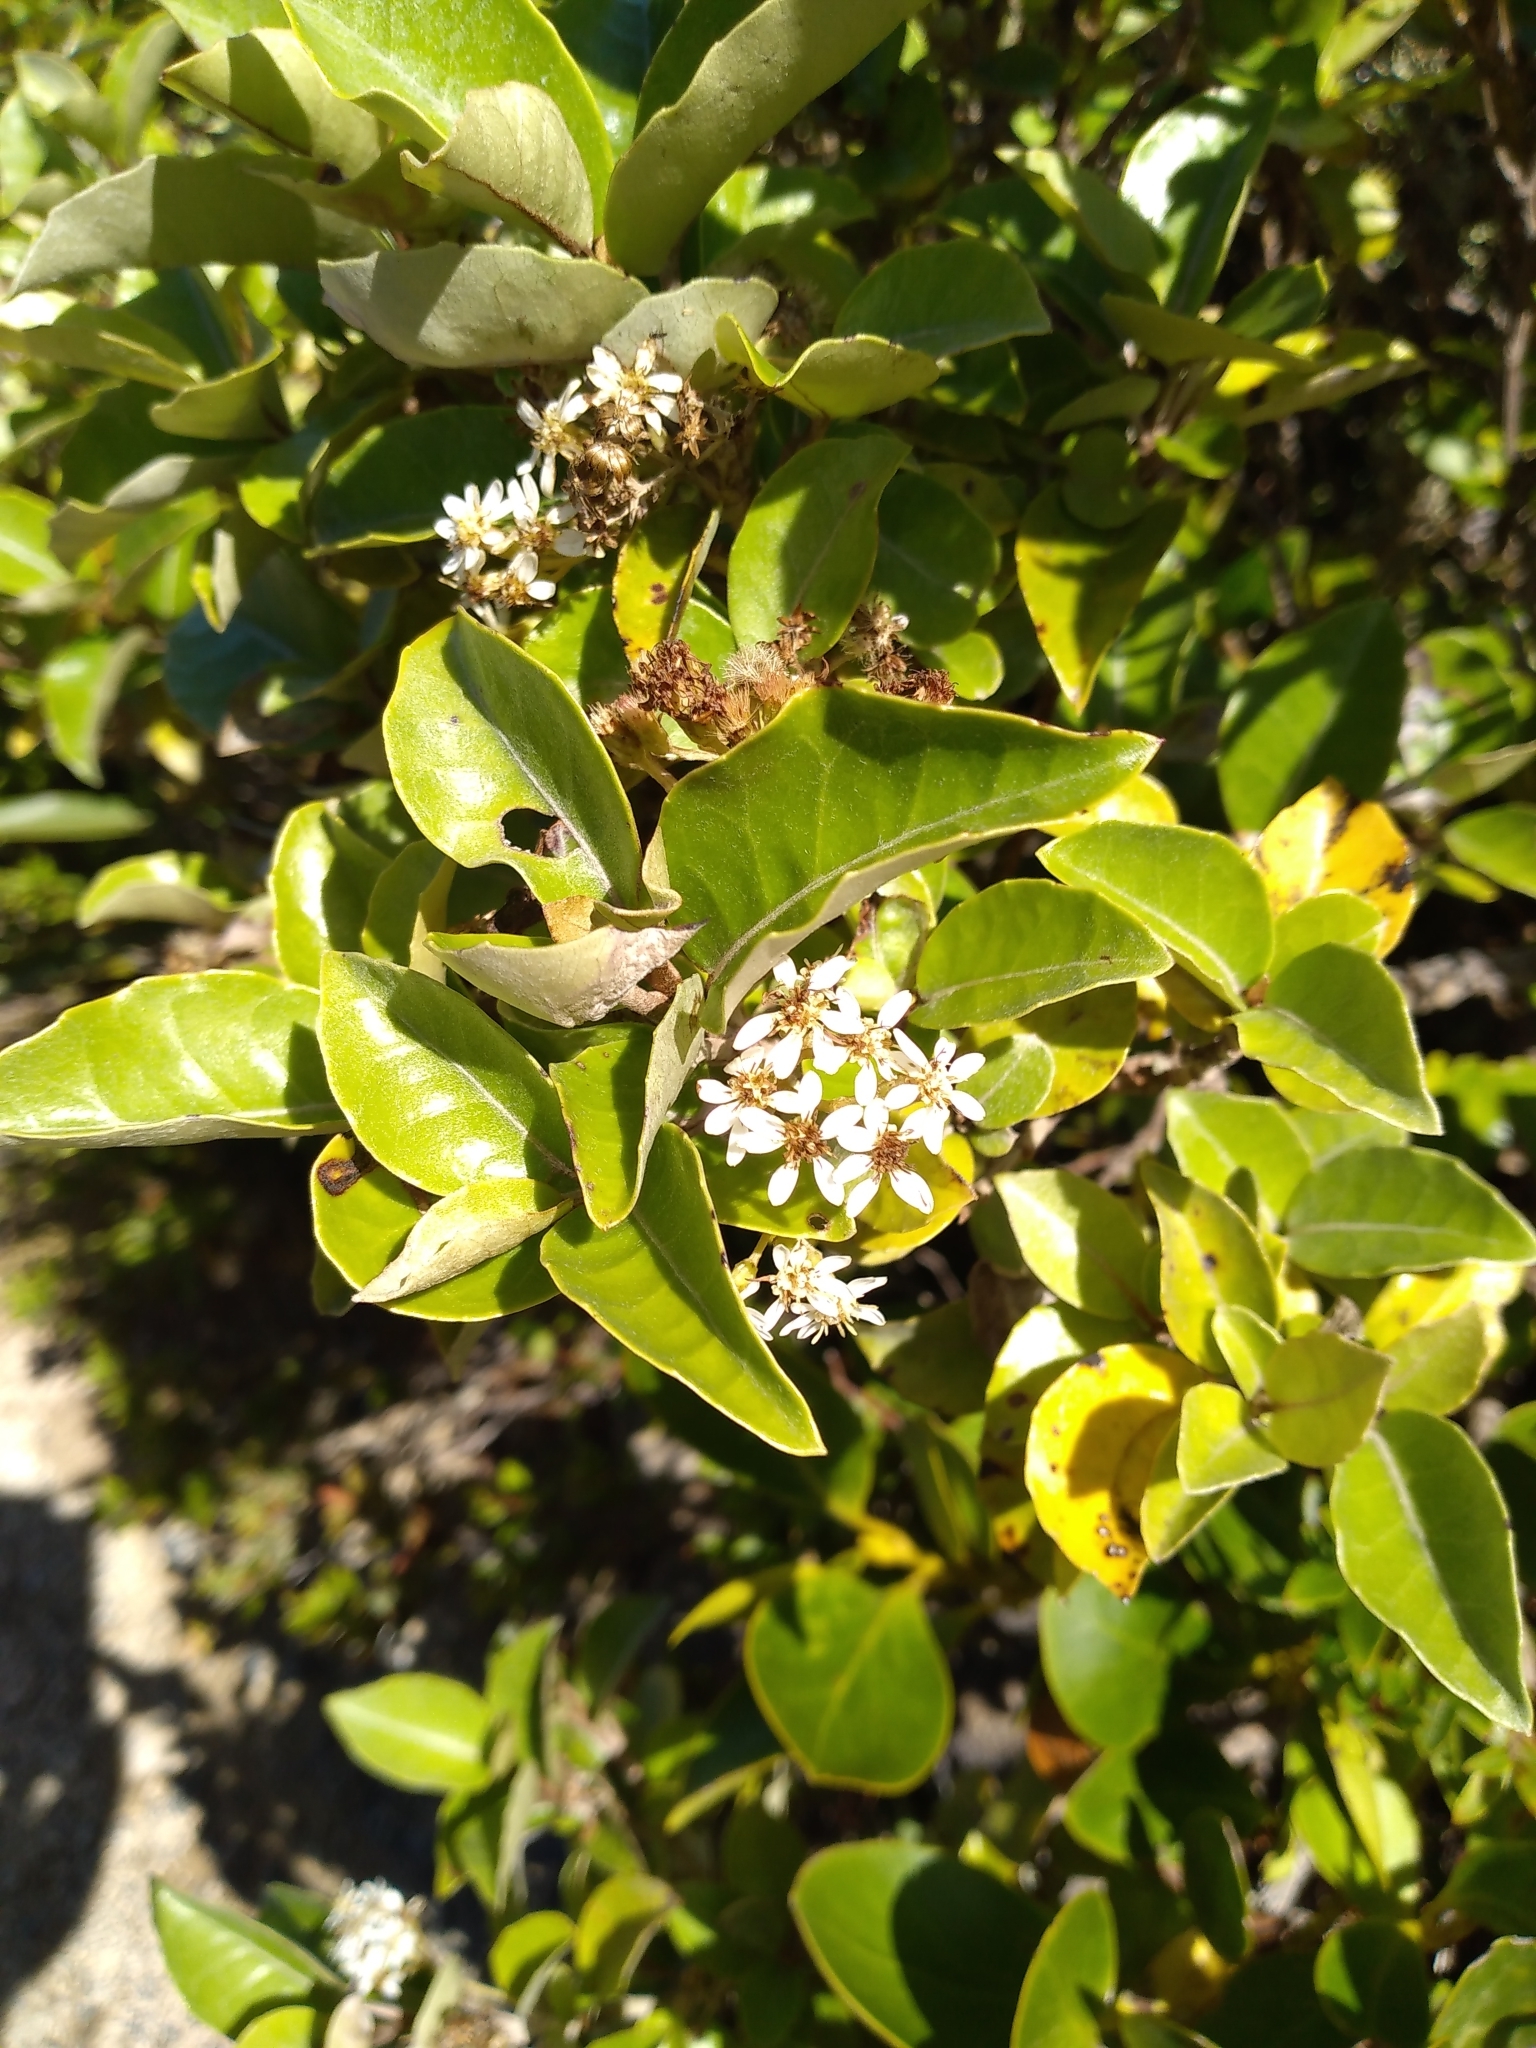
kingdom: Plantae
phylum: Tracheophyta
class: Magnoliopsida
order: Asterales
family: Asteraceae
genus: Olearia
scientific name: Olearia arborescens
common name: Glossy tree daisy
